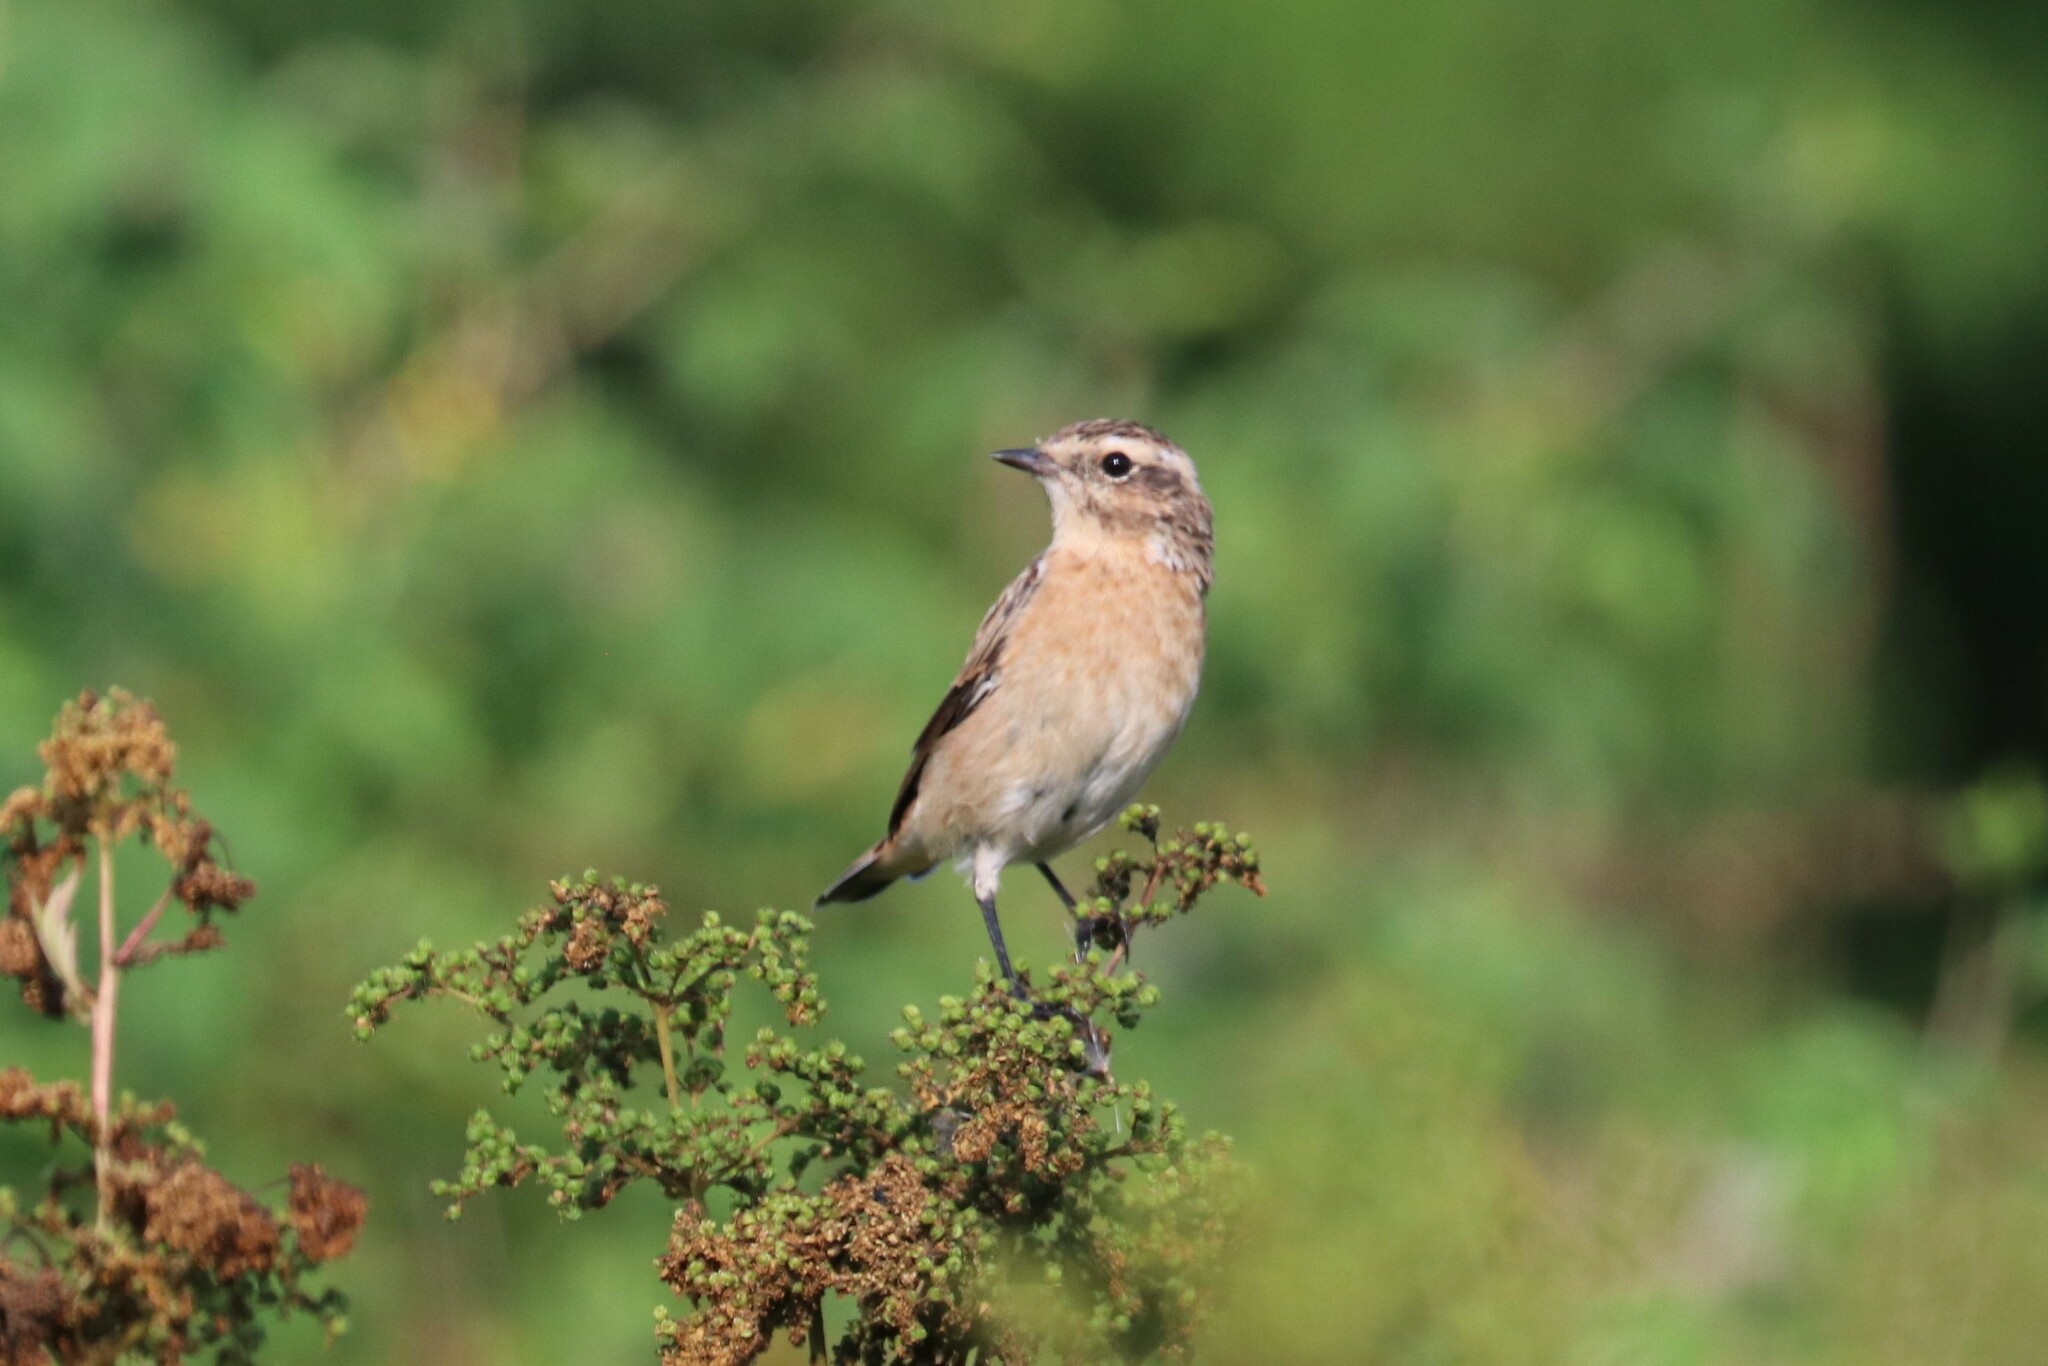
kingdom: Animalia
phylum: Chordata
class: Aves
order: Passeriformes
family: Muscicapidae
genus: Saxicola
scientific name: Saxicola rubetra
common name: Whinchat
